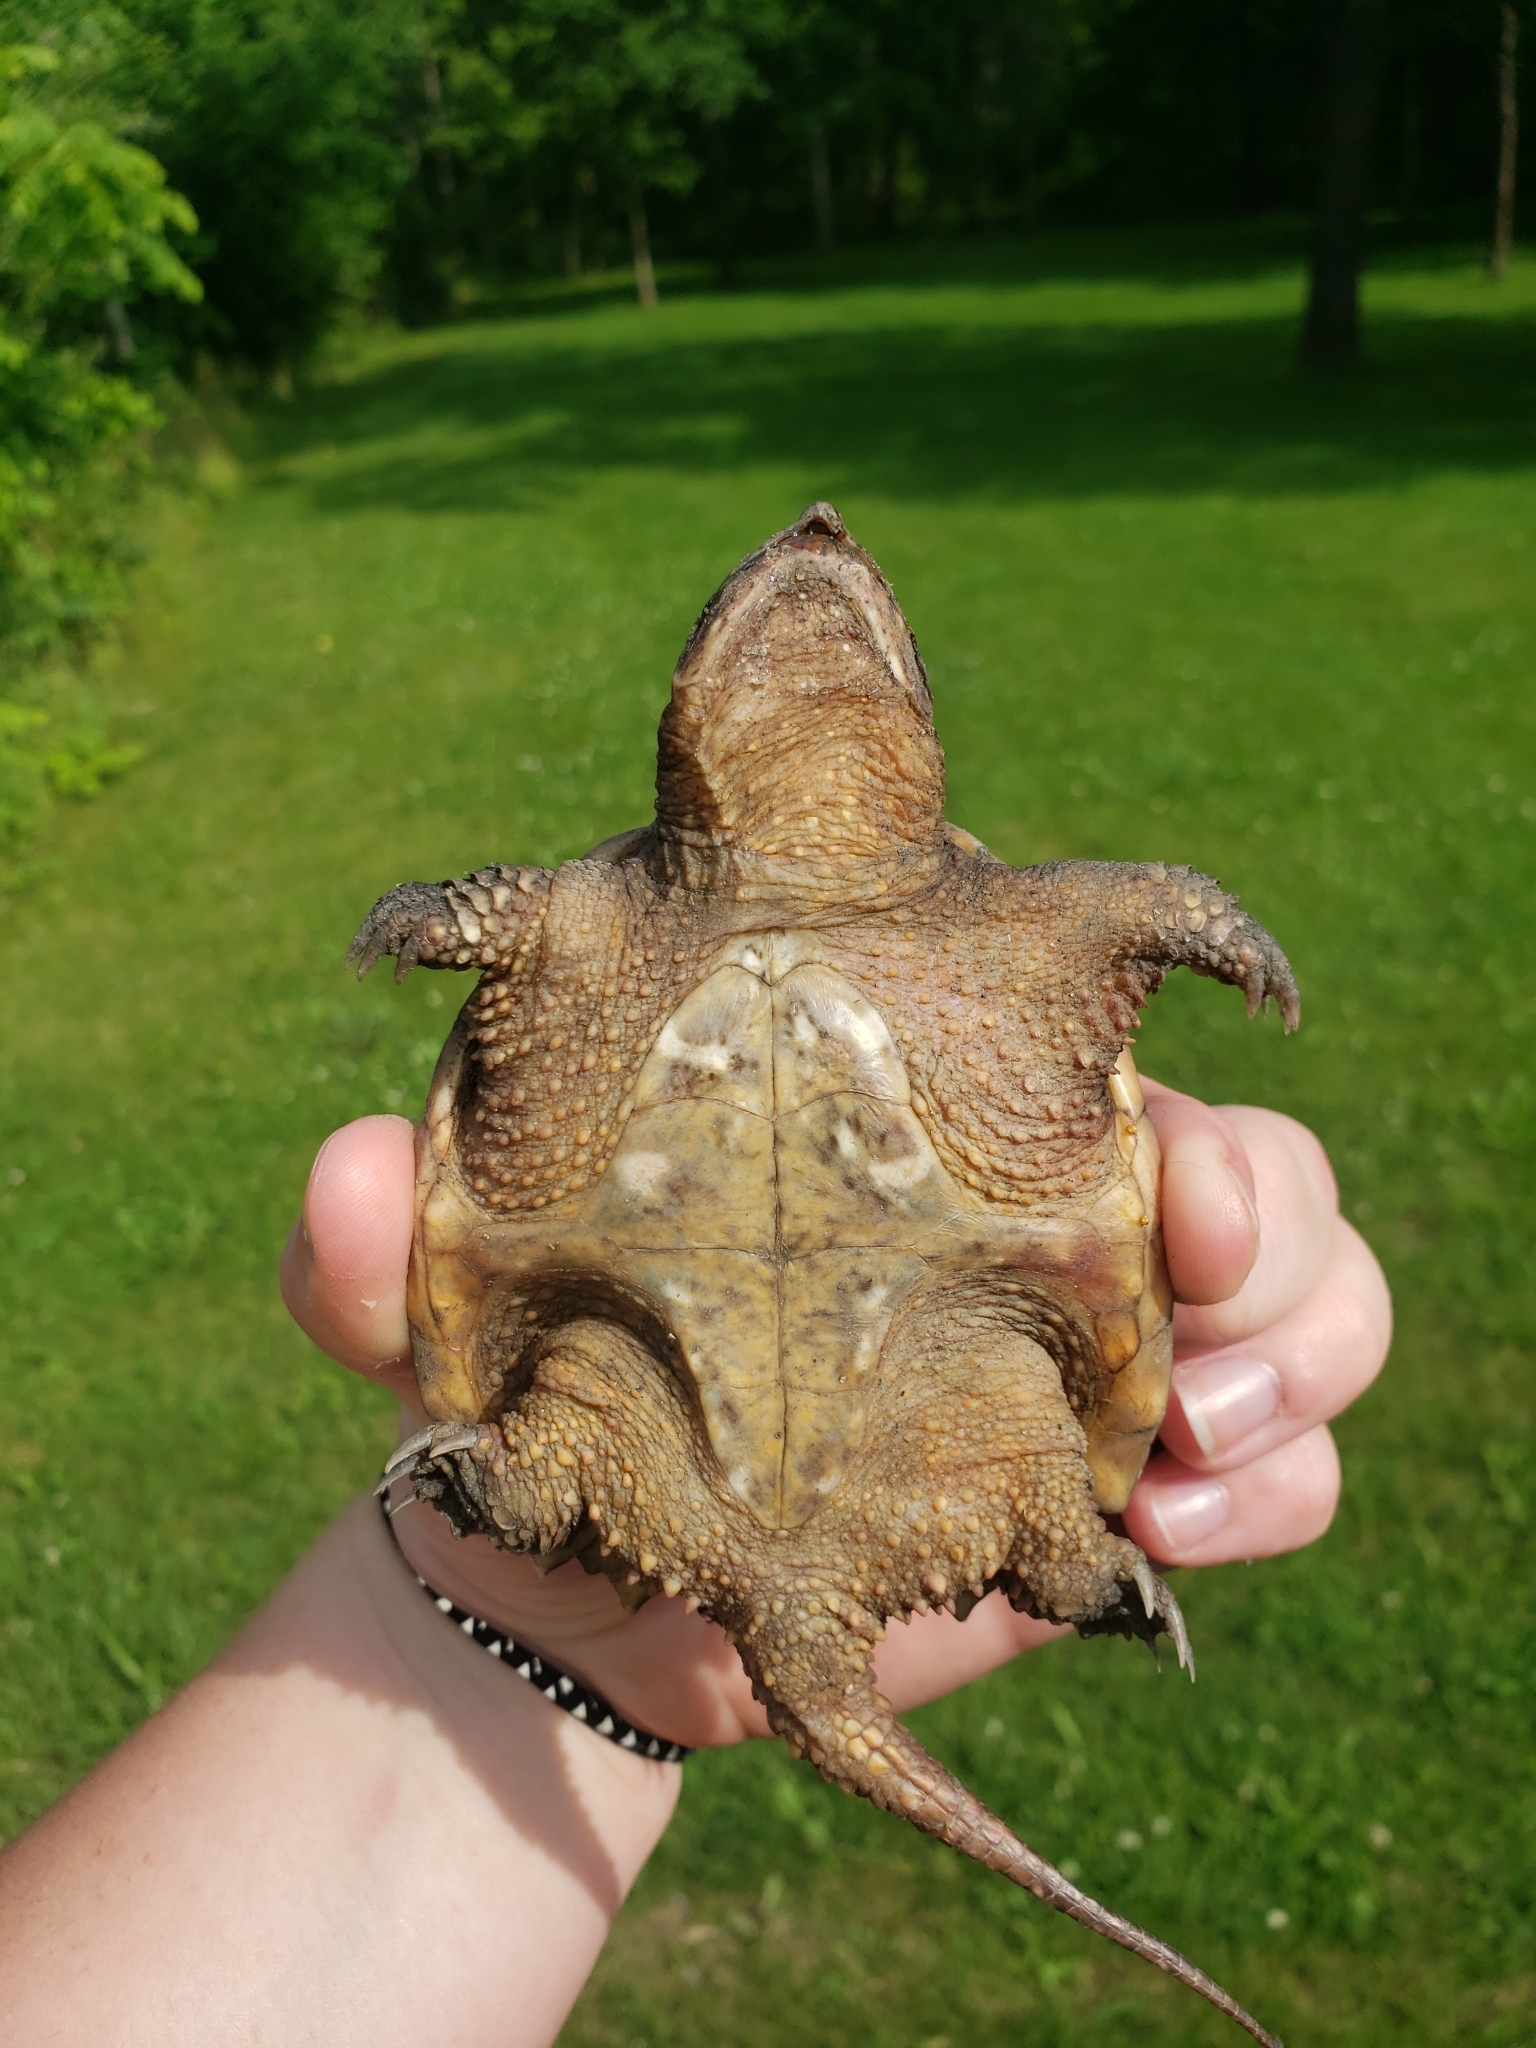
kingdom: Animalia
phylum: Chordata
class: Testudines
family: Chelydridae
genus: Chelydra
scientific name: Chelydra serpentina
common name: Common snapping turtle
